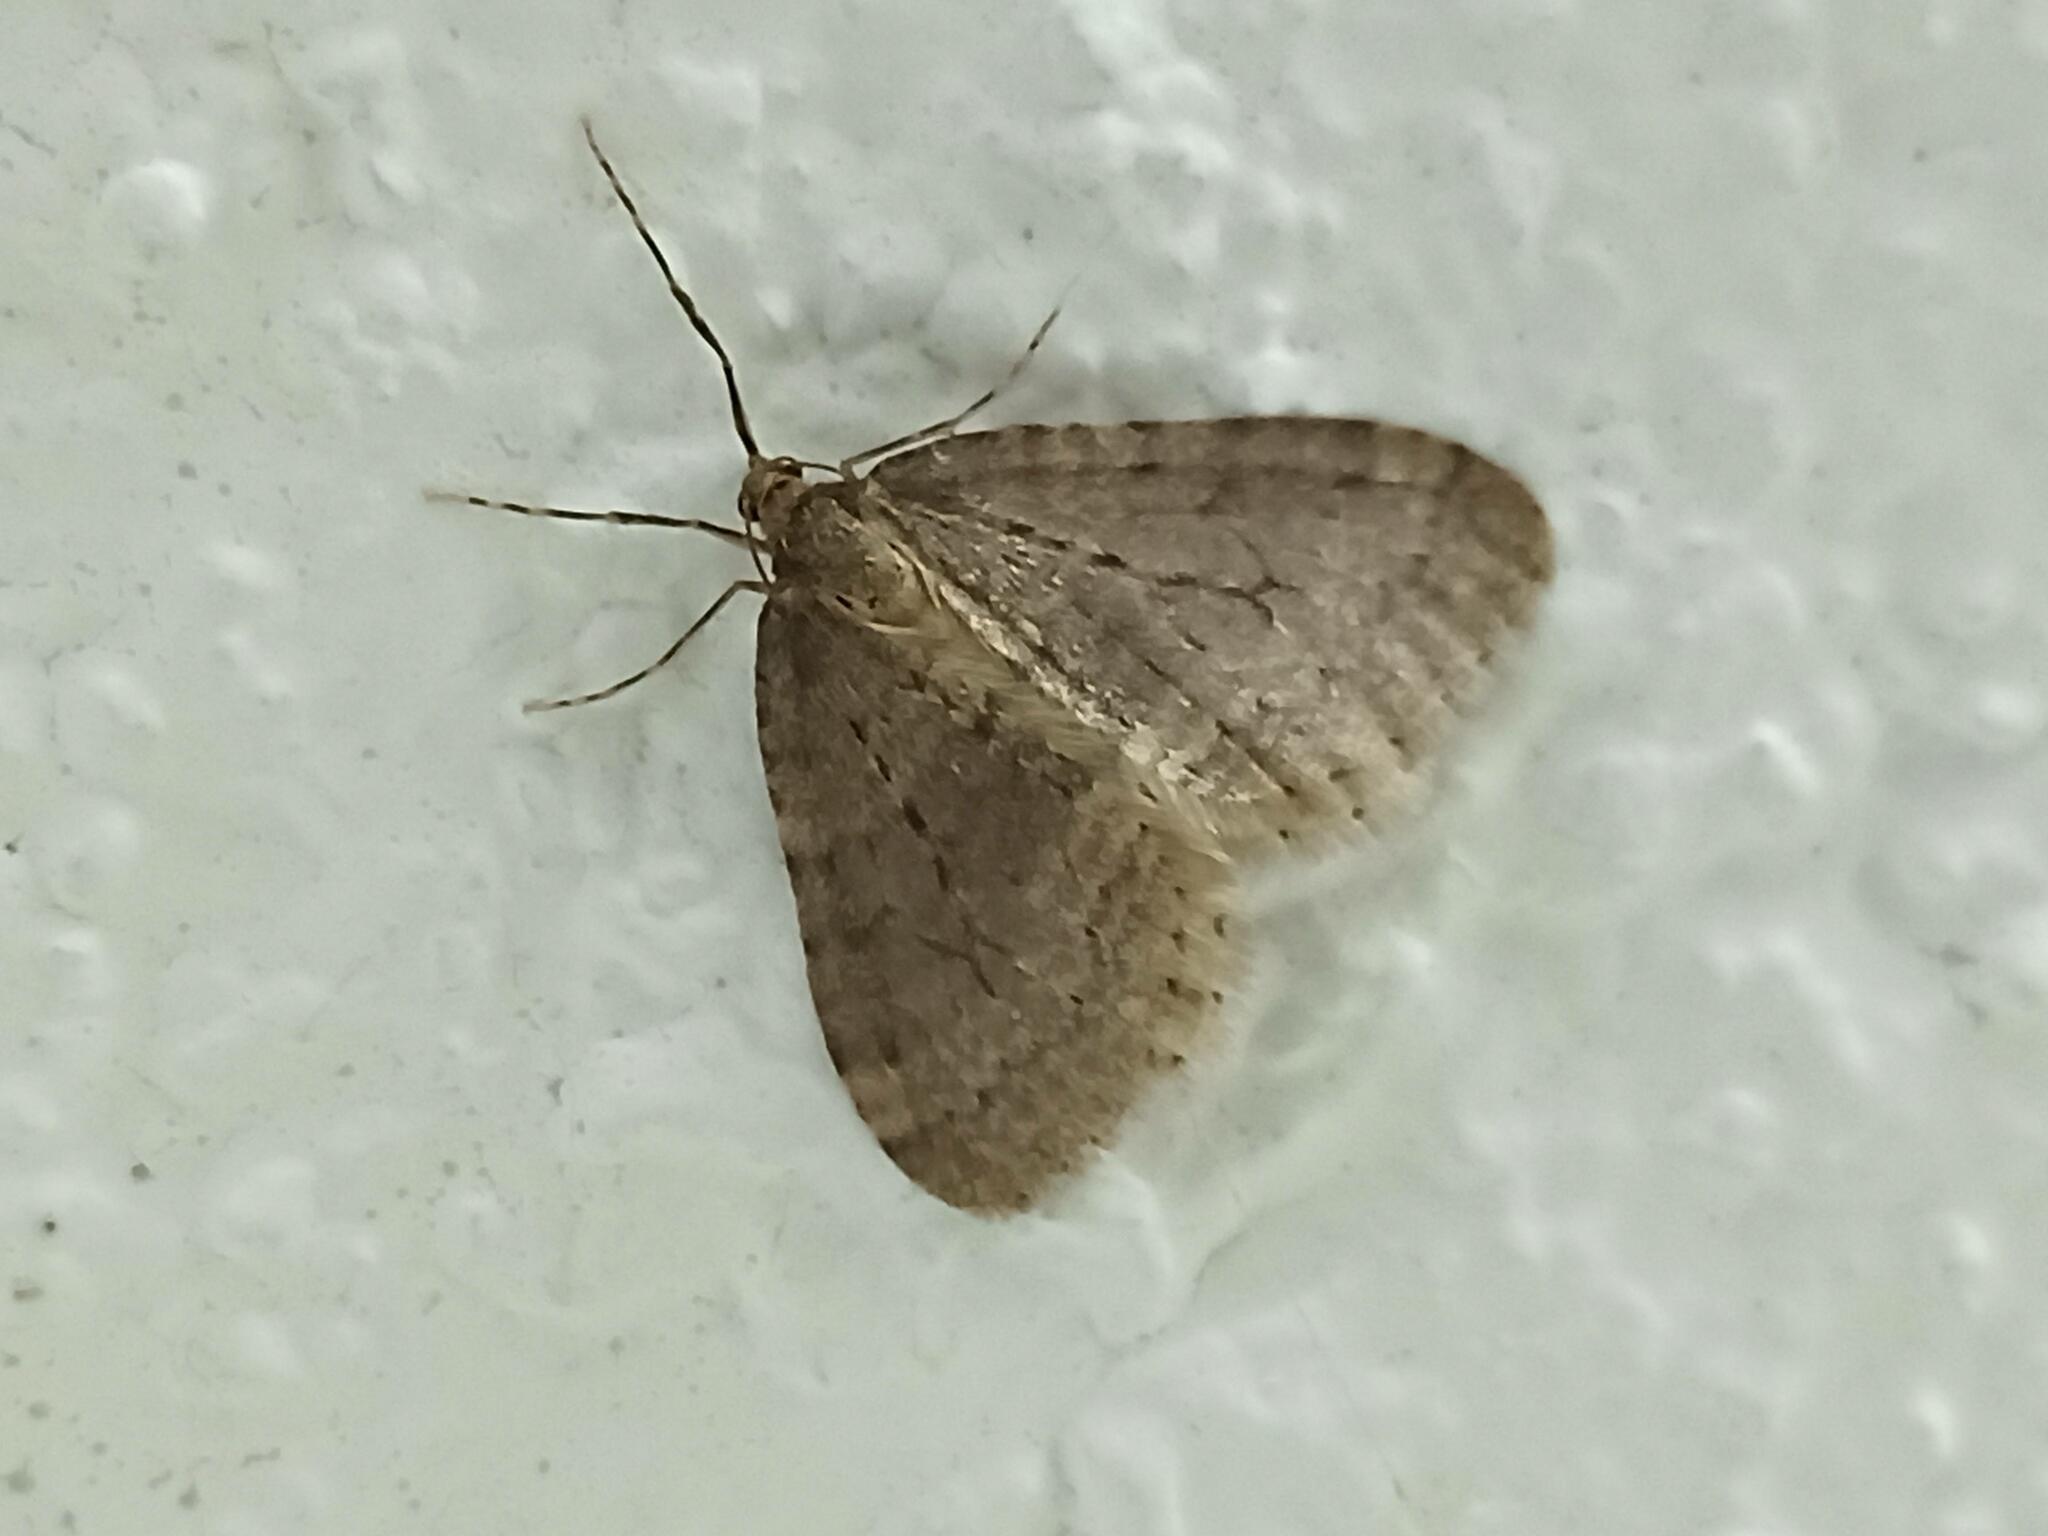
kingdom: Animalia
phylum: Arthropoda
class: Insecta
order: Lepidoptera
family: Geometridae
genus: Operophtera
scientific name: Operophtera brumata
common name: Winter moth
